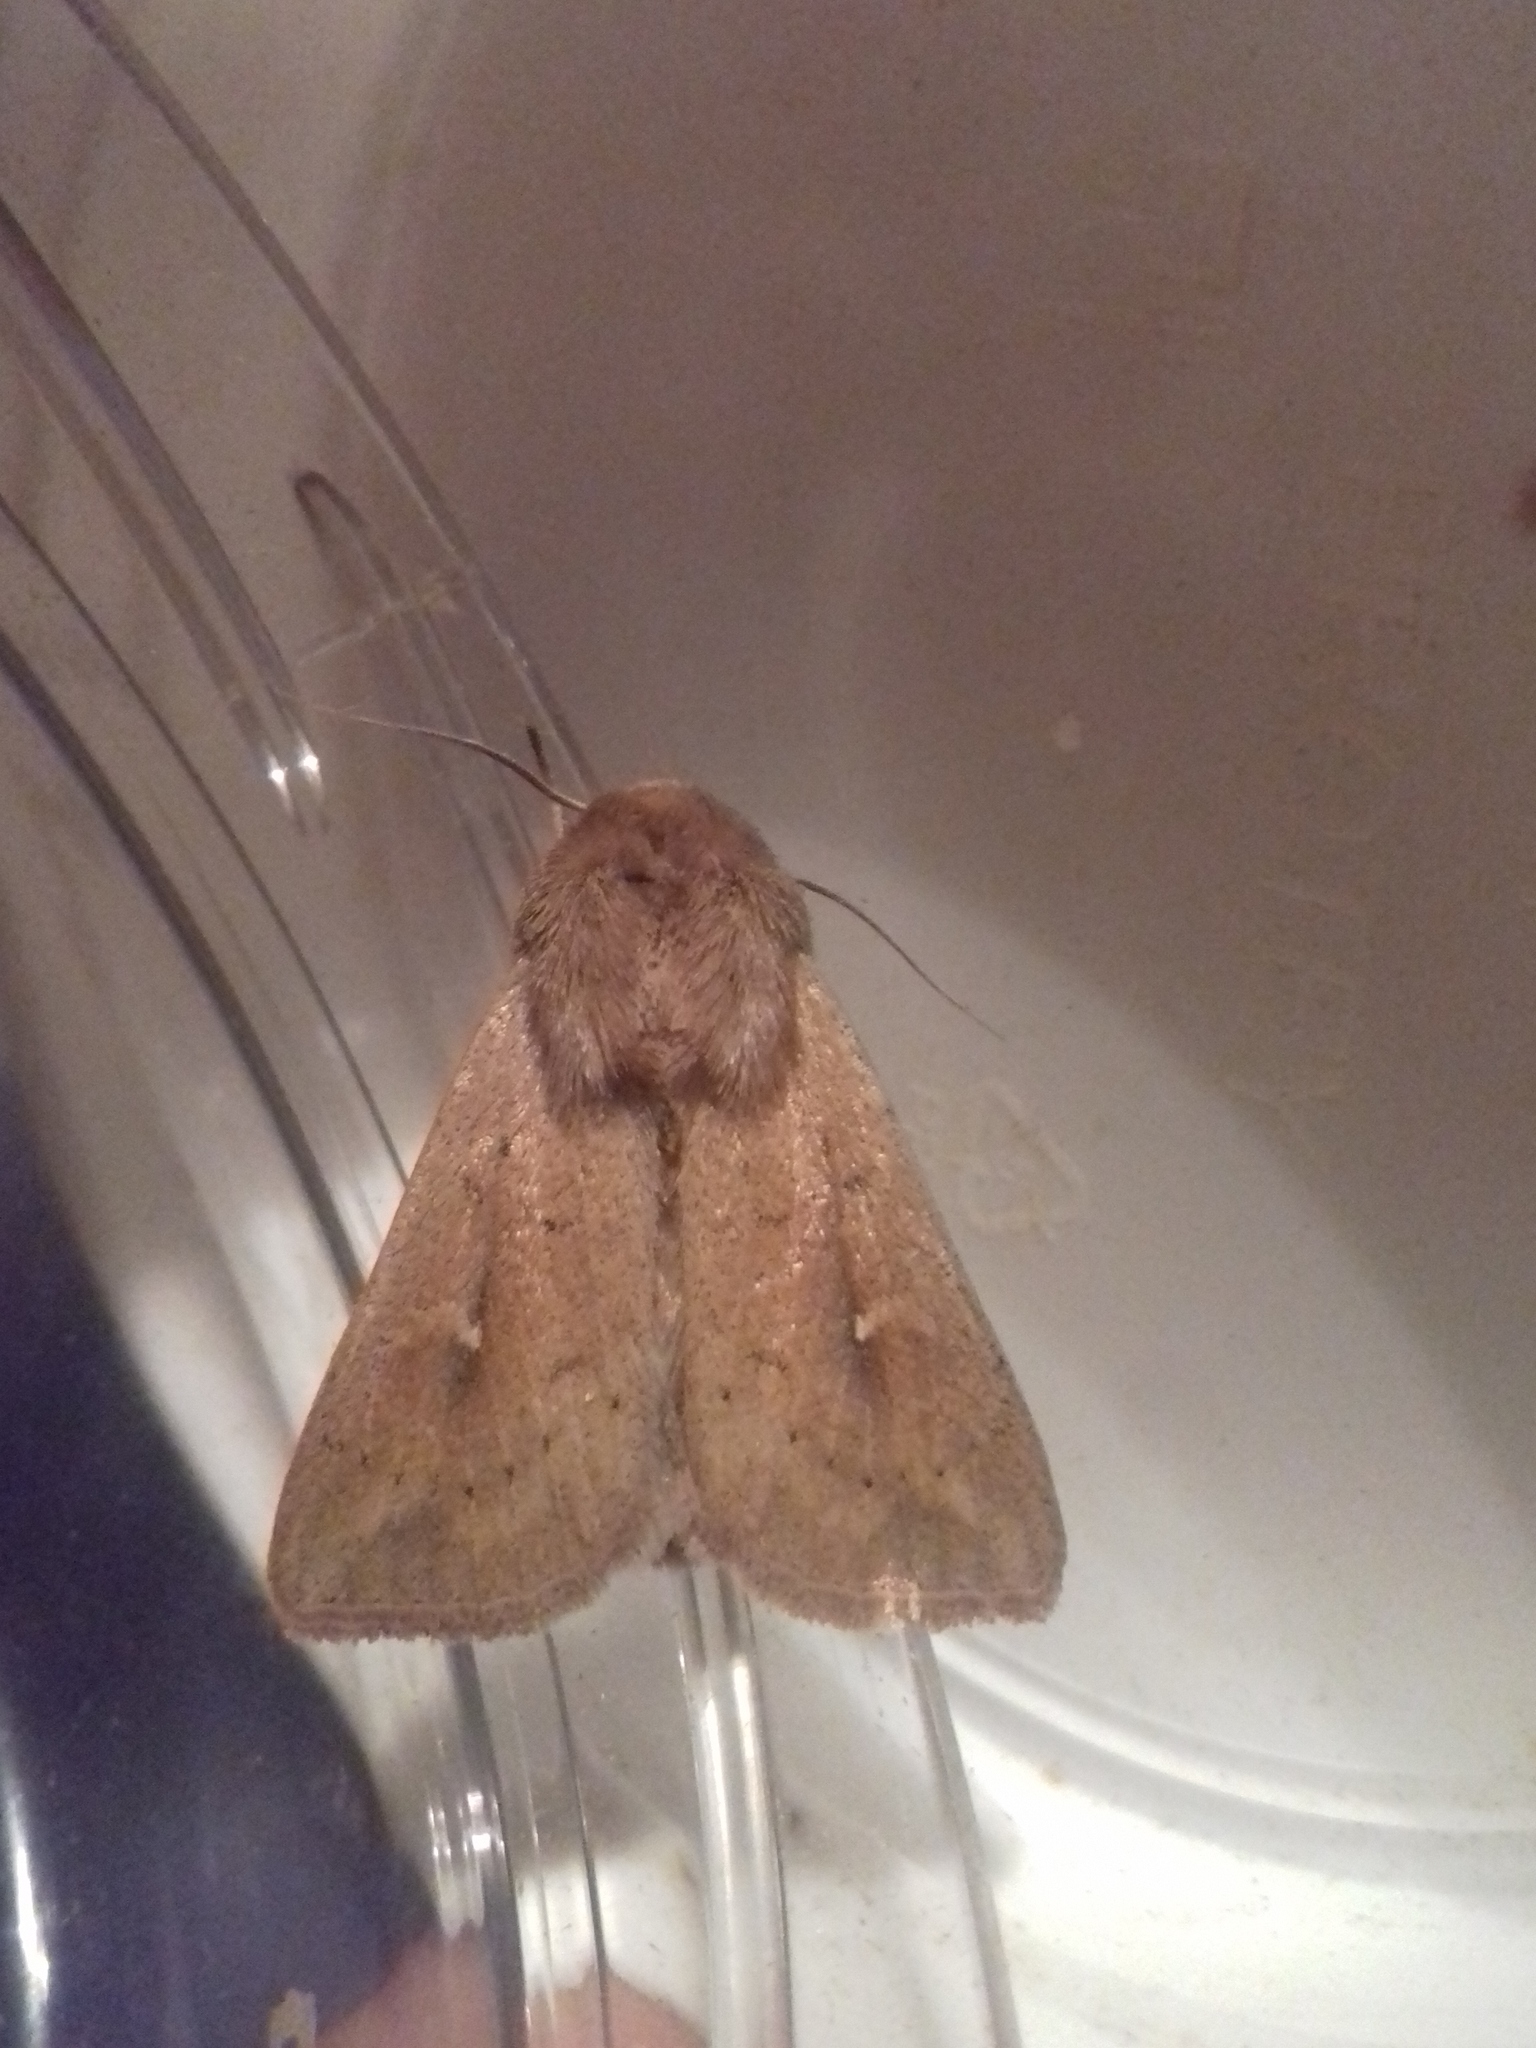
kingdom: Animalia
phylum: Arthropoda
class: Insecta
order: Lepidoptera
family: Noctuidae
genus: Mythimna
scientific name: Mythimna ferrago
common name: Clay
